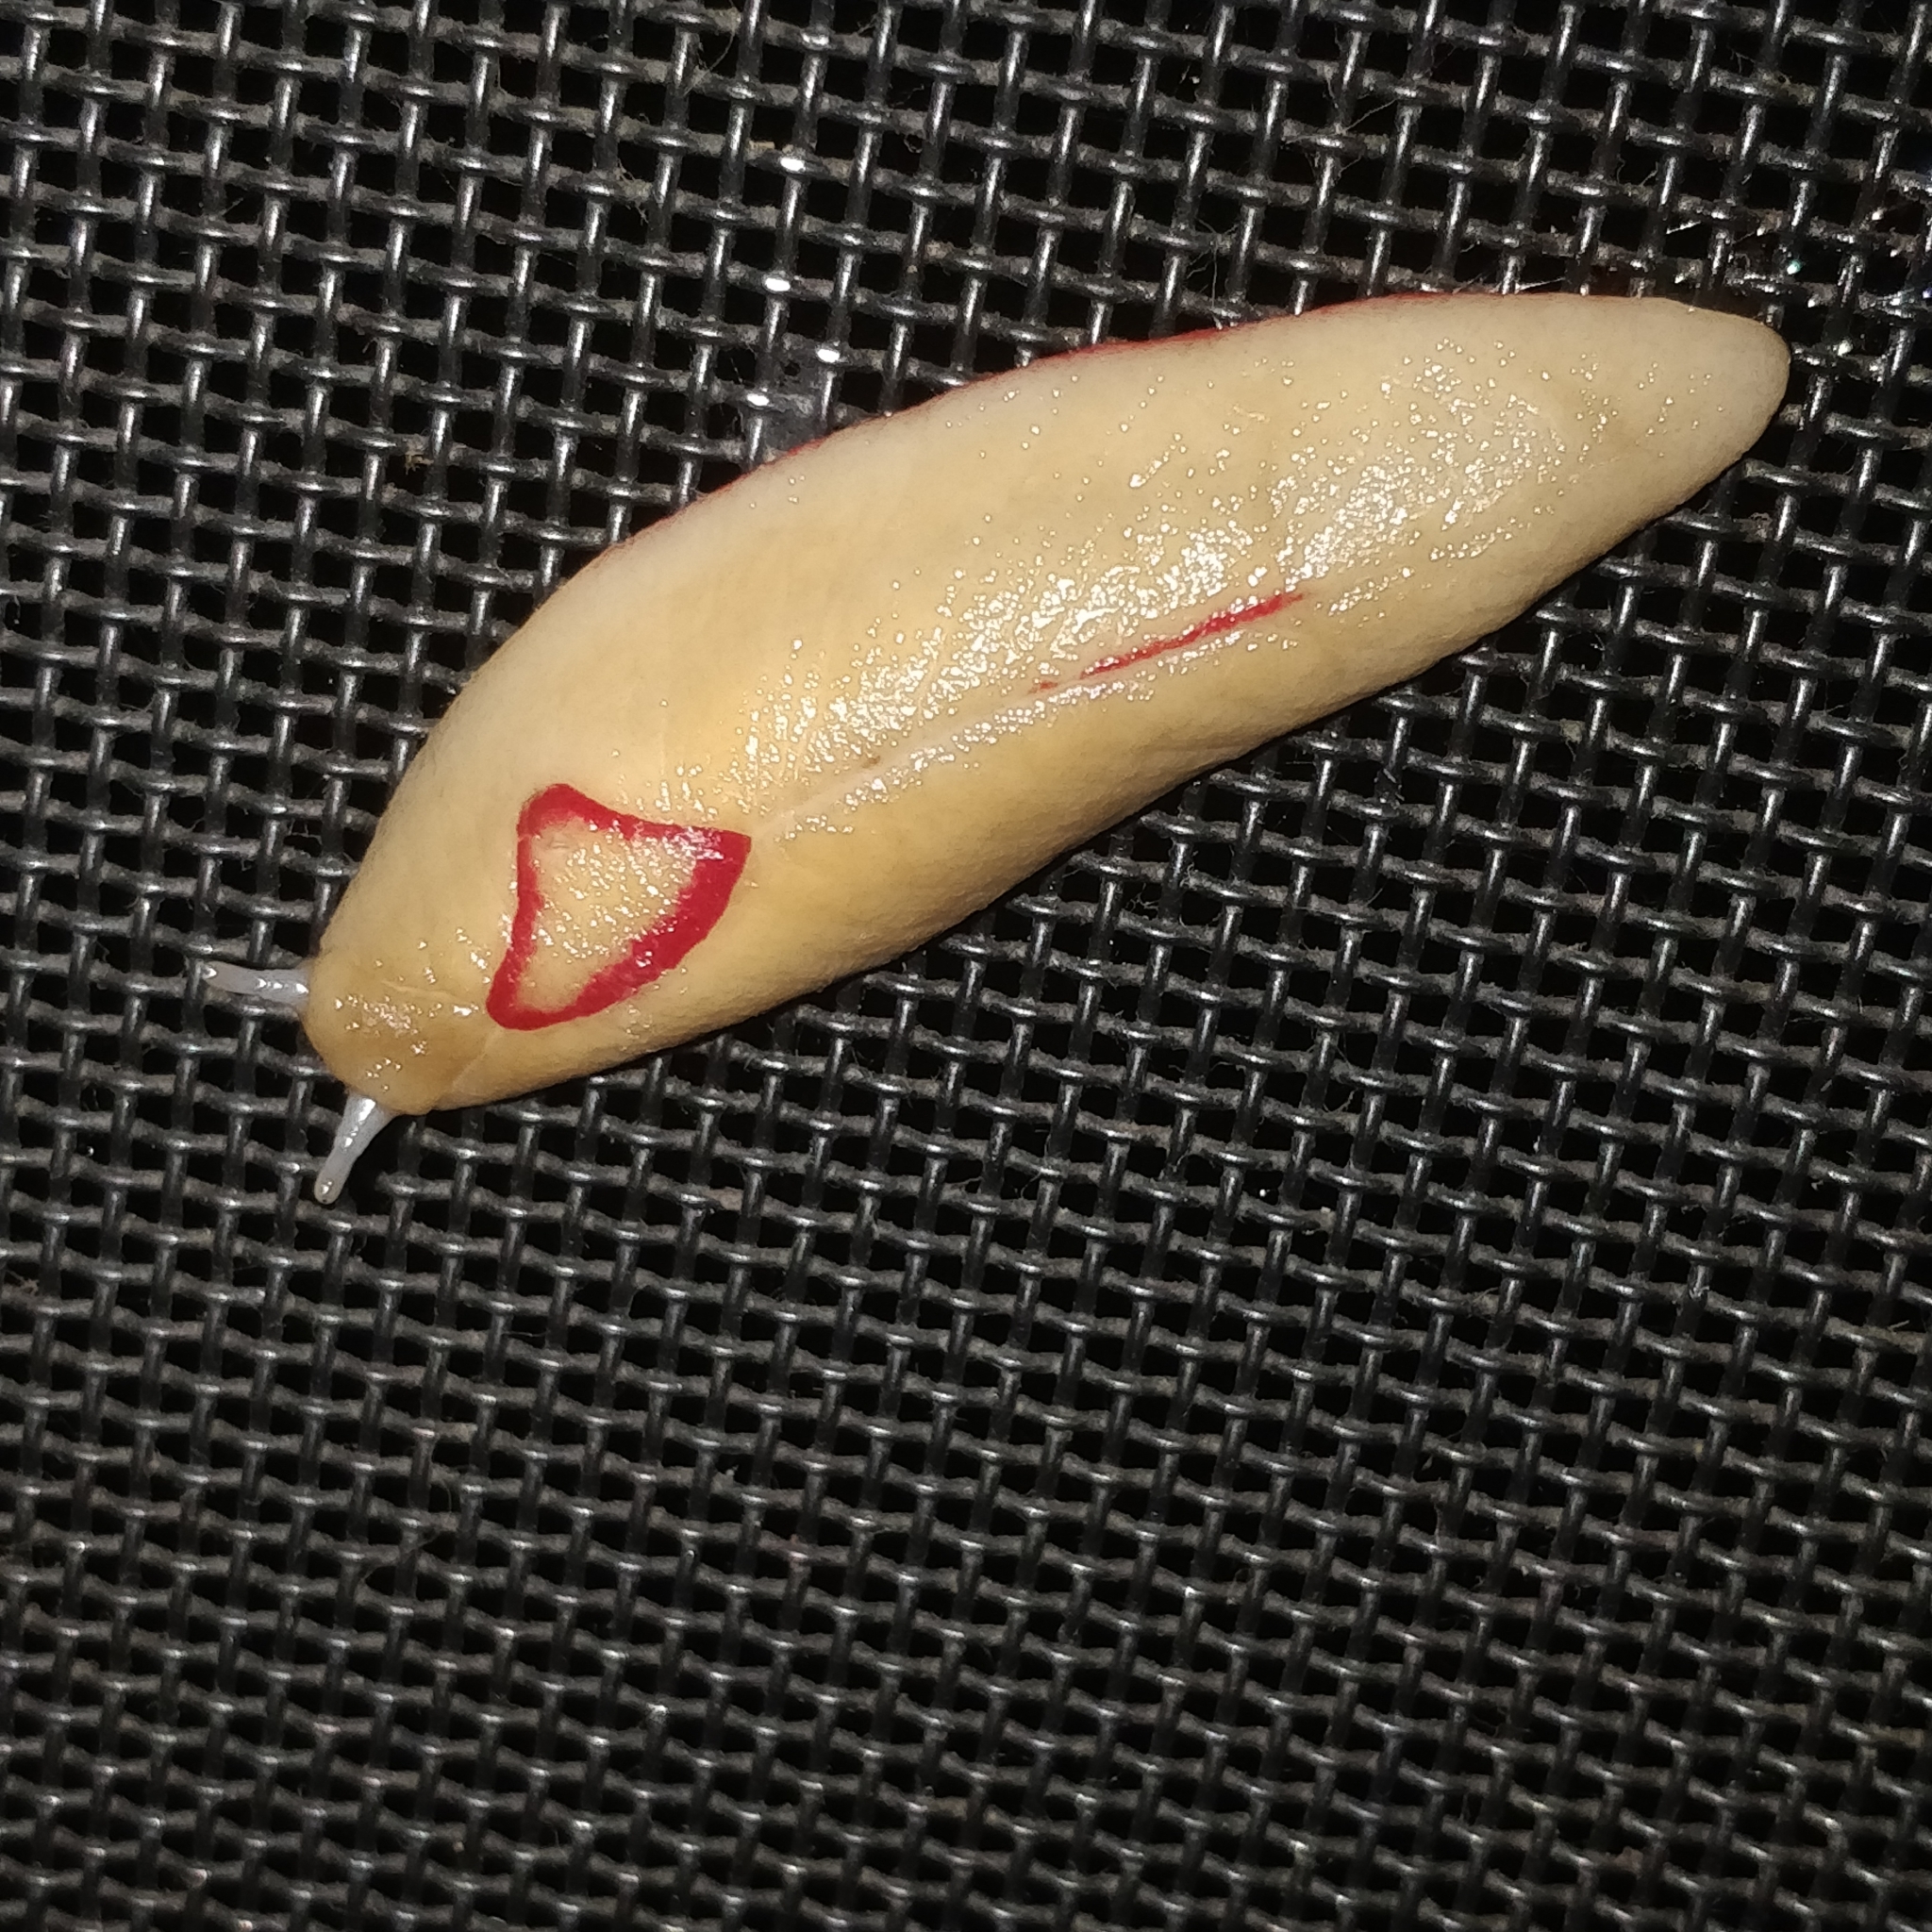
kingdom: Animalia
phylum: Mollusca
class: Gastropoda
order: Stylommatophora
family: Athoracophoridae
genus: Triboniophorus
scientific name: Triboniophorus graeffei
